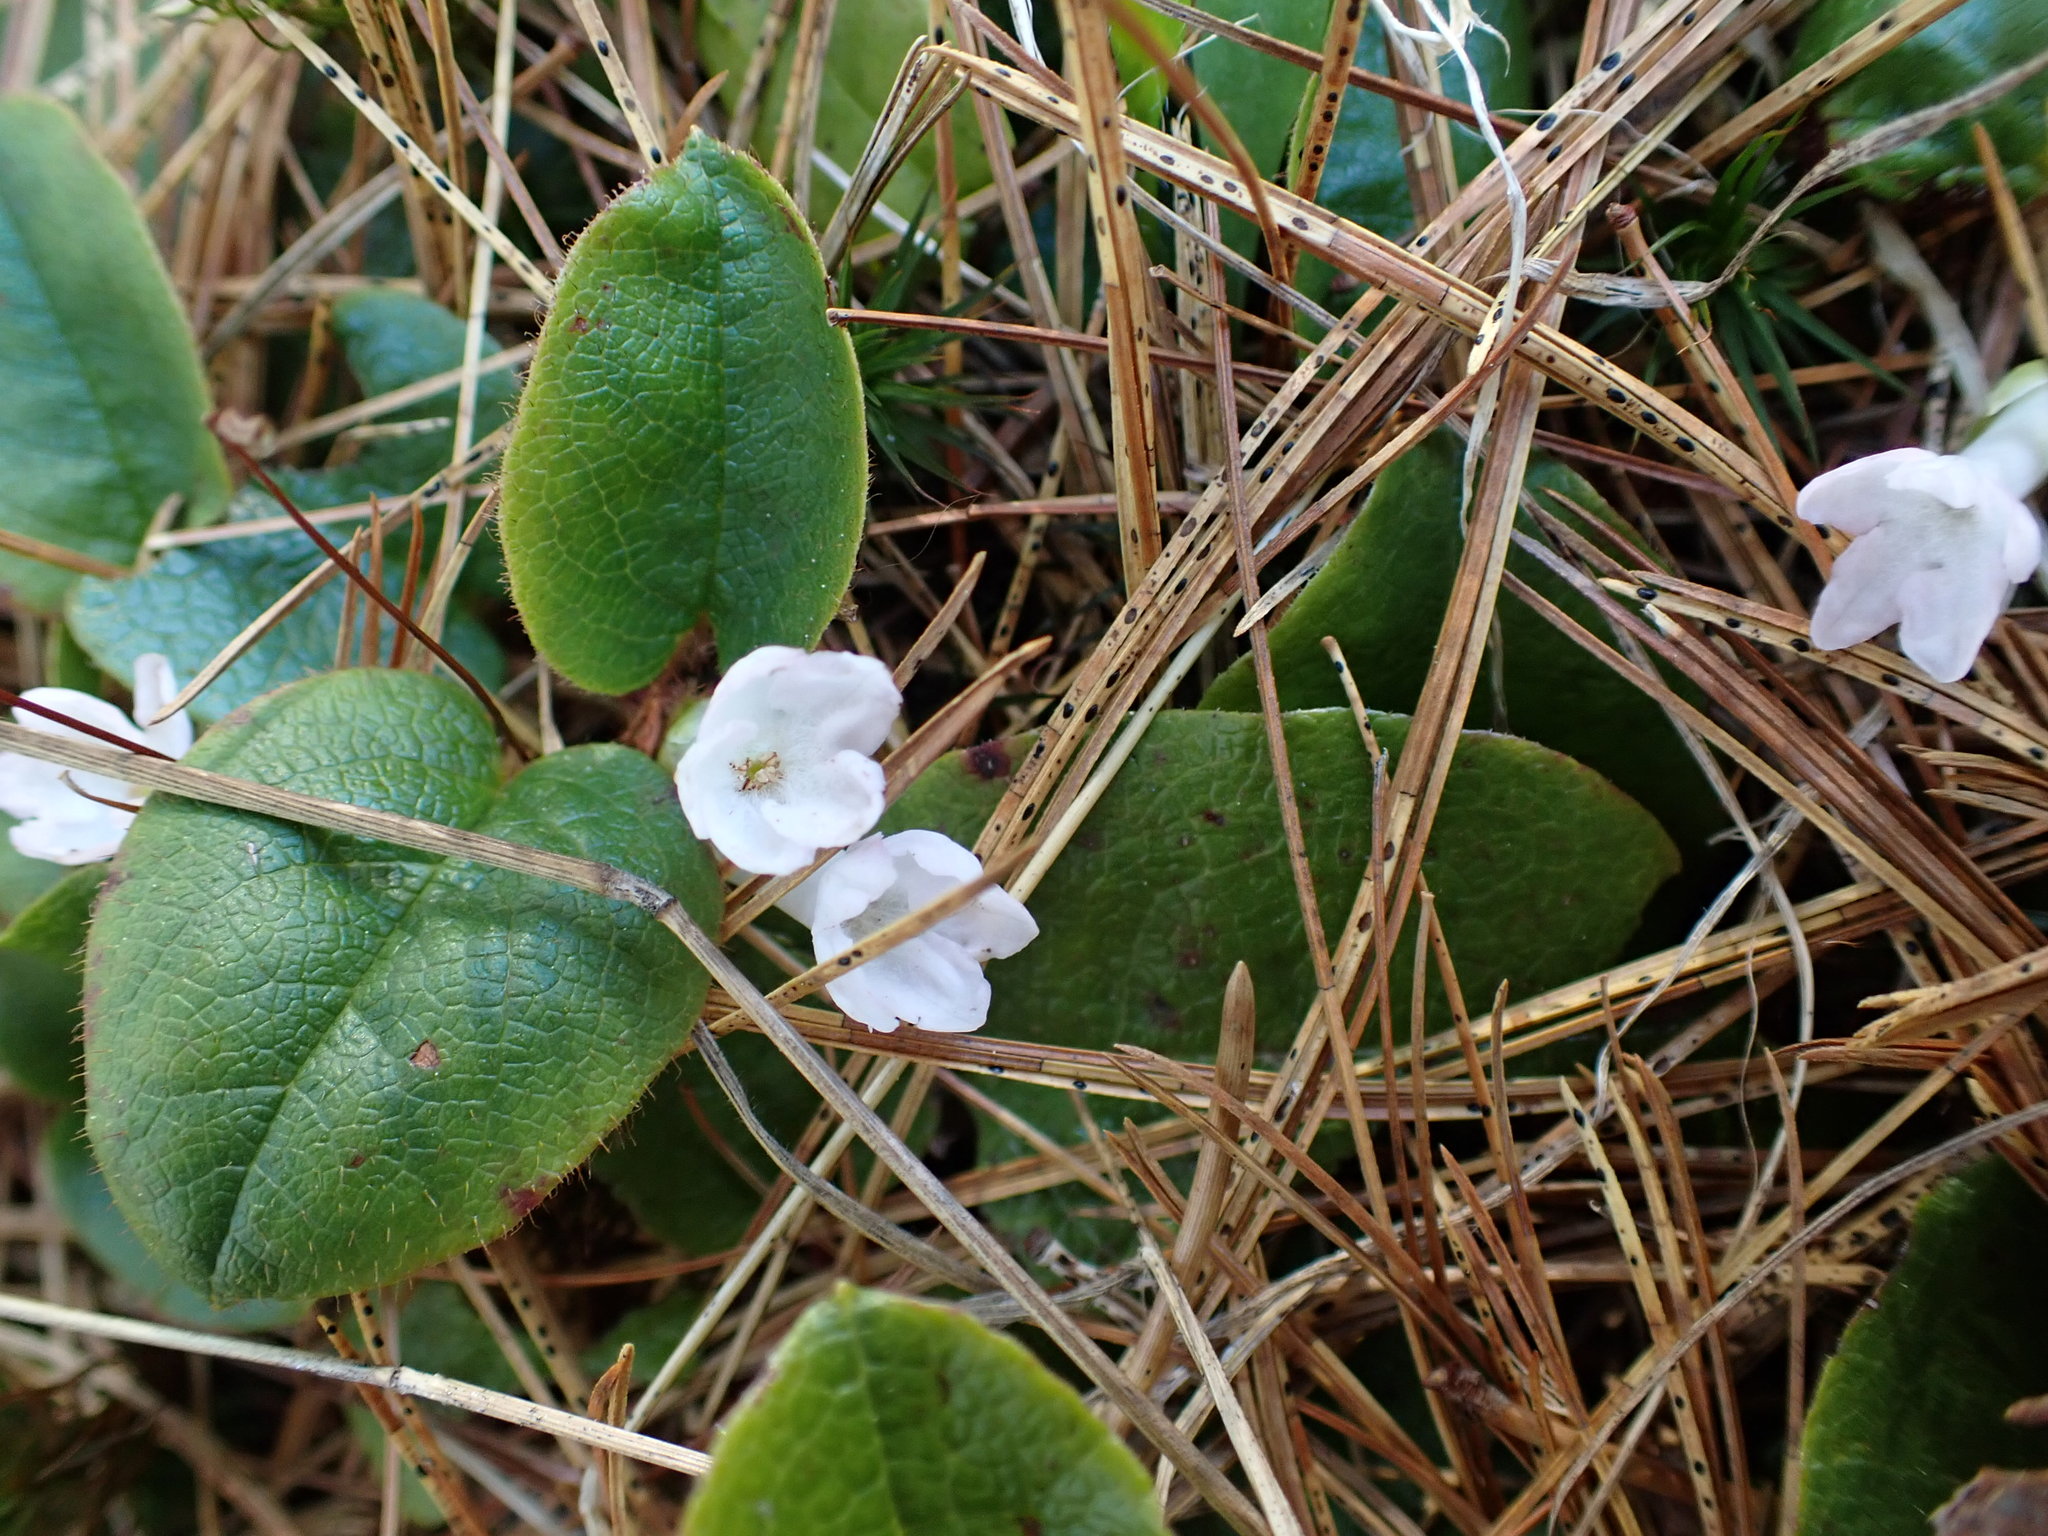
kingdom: Plantae
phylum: Tracheophyta
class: Magnoliopsida
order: Ericales
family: Ericaceae
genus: Epigaea
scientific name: Epigaea repens
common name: Gravelroot
